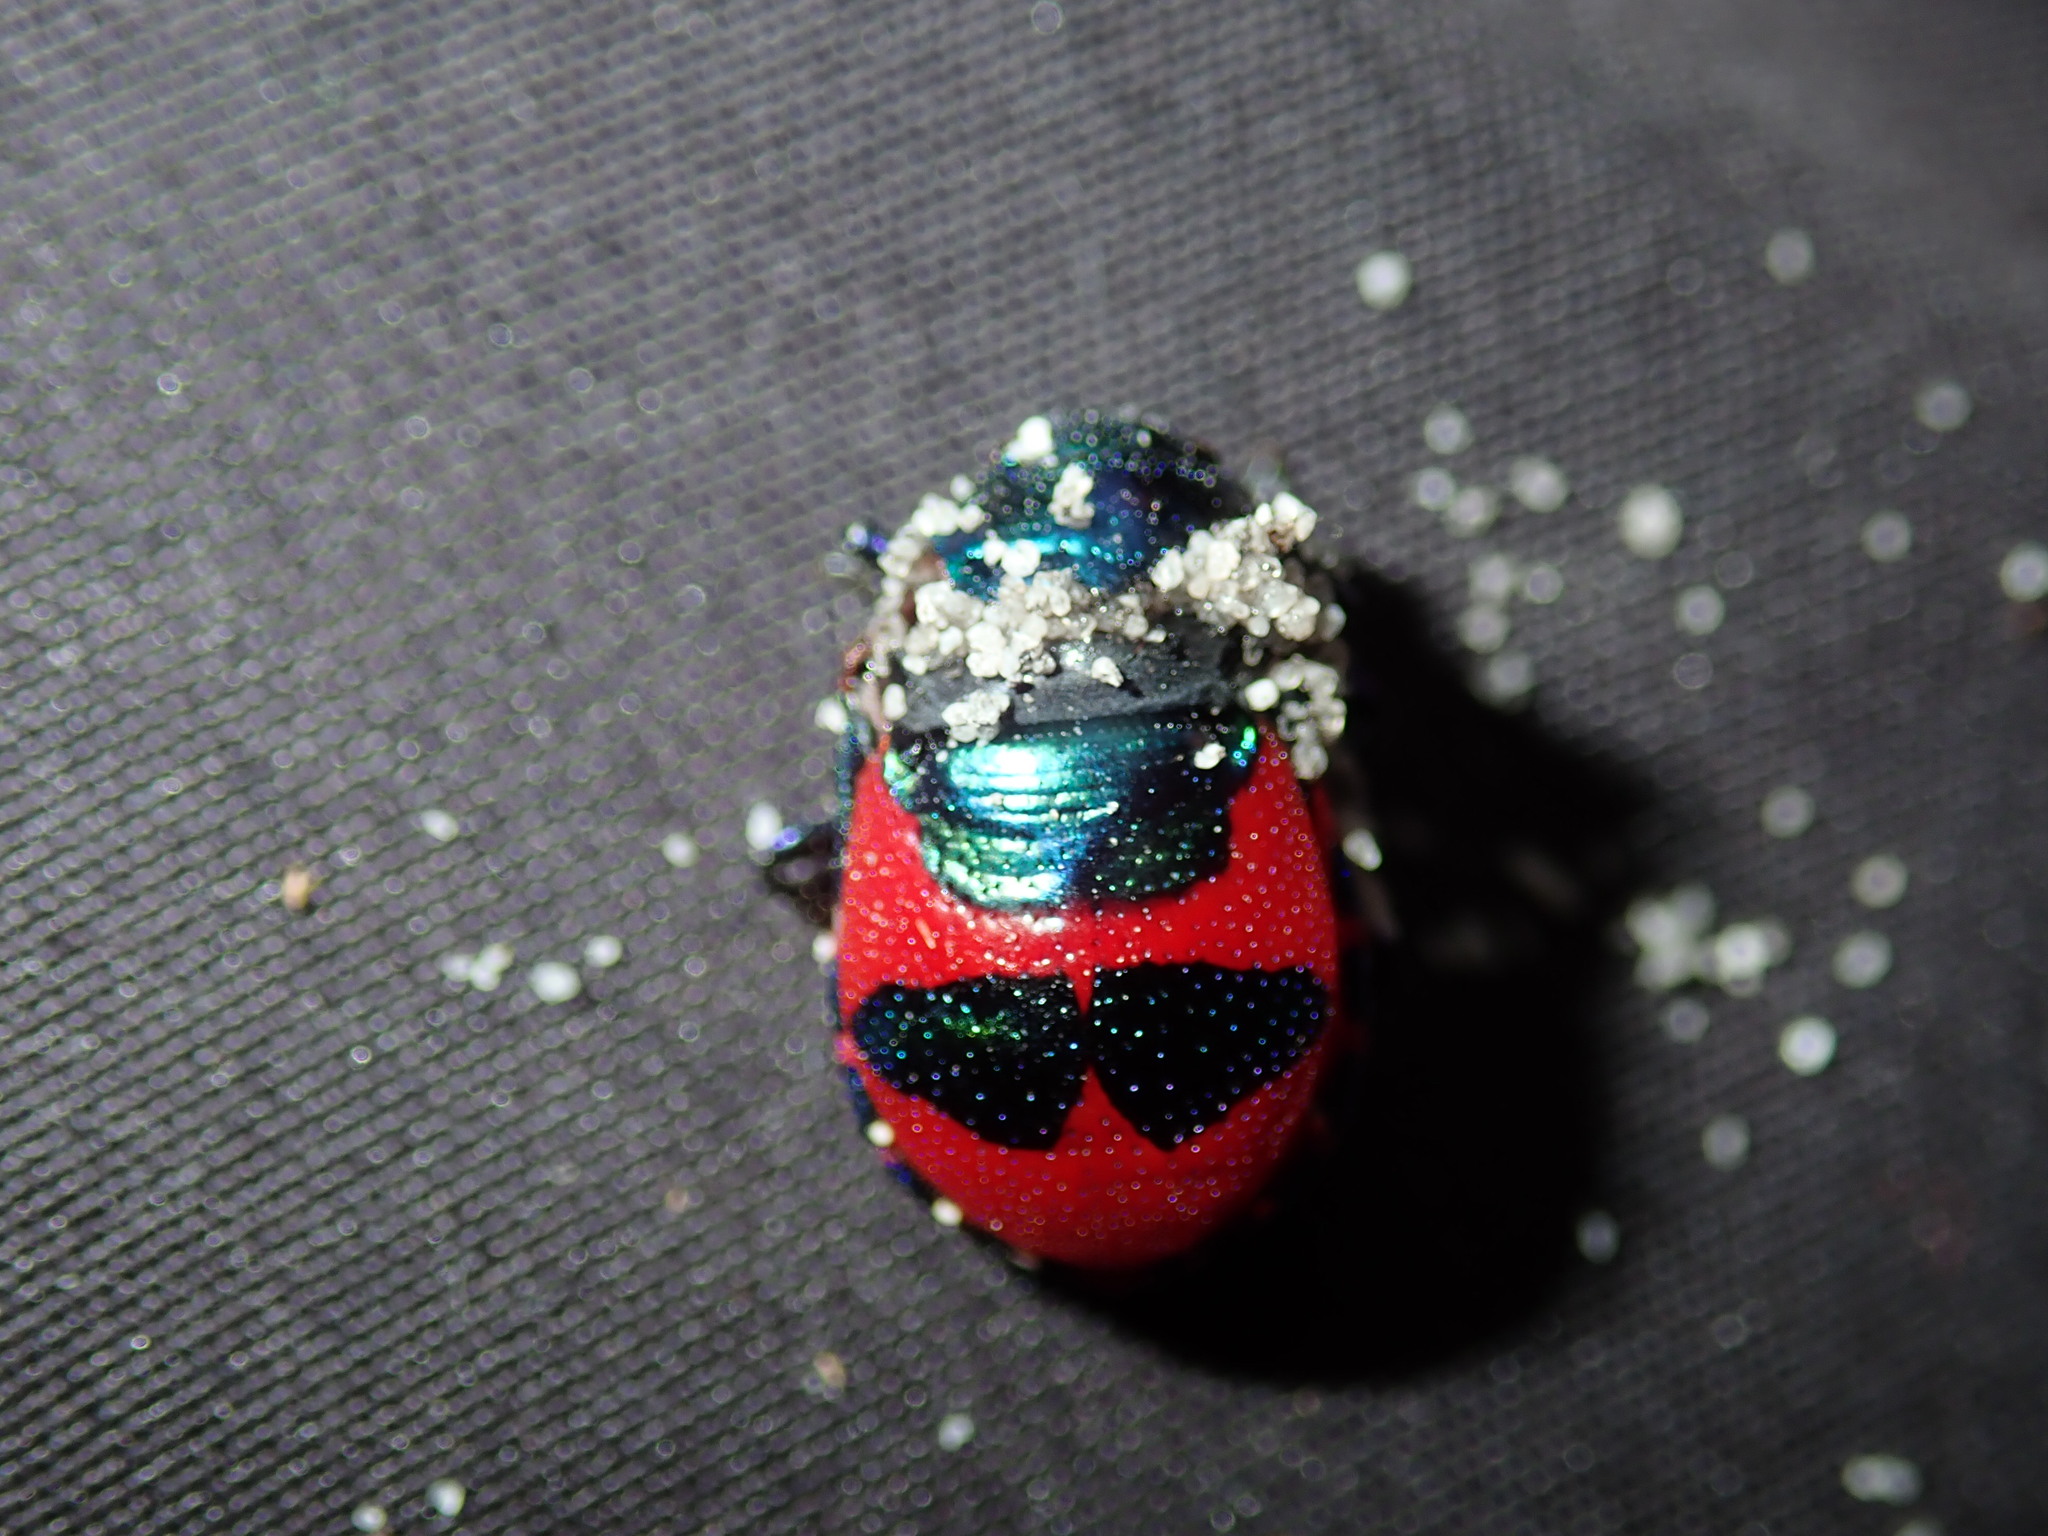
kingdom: Animalia
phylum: Arthropoda
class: Insecta
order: Hemiptera
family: Scutelleridae
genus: Choerocoris
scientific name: Choerocoris paganus
